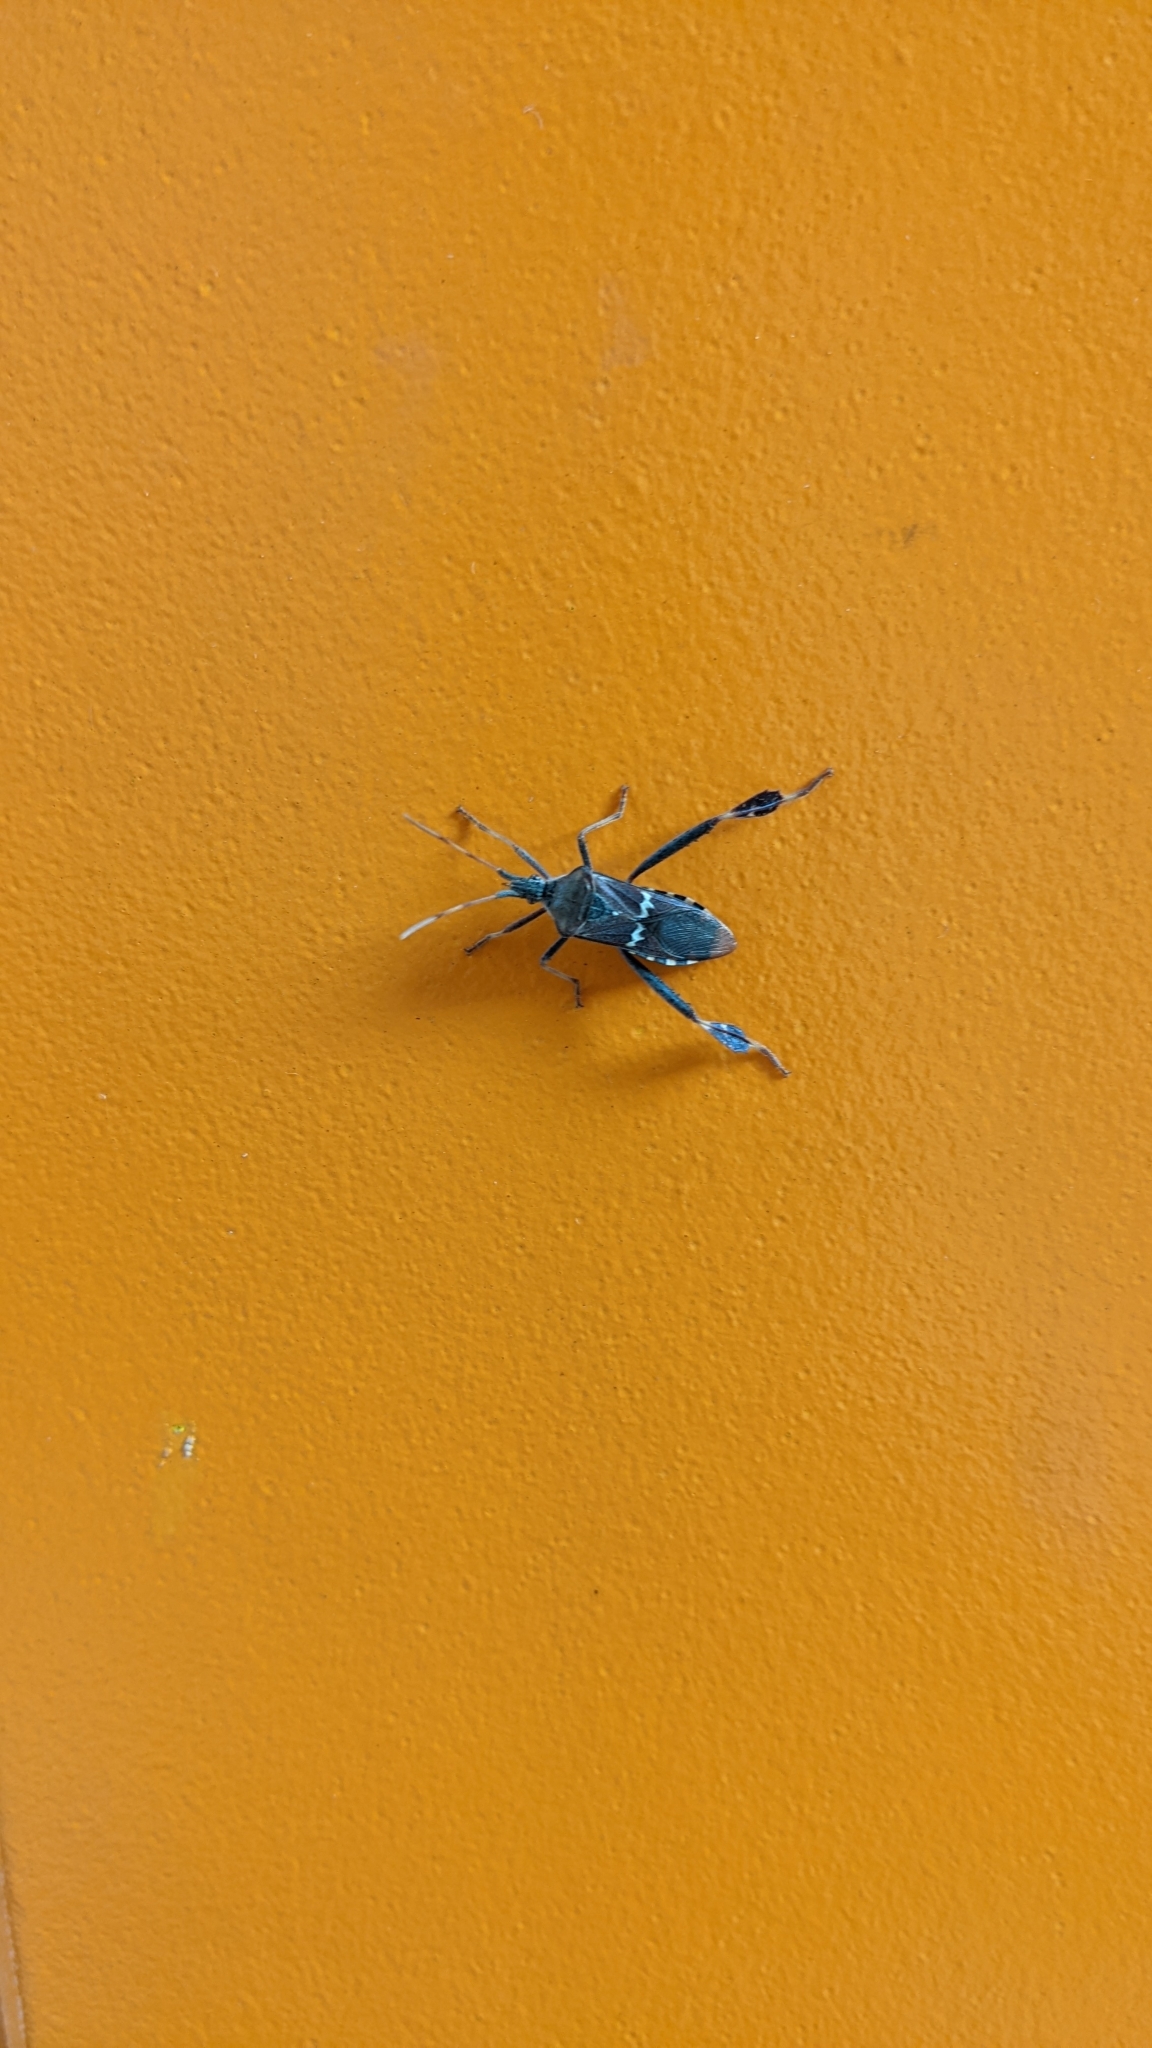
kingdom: Animalia
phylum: Arthropoda
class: Insecta
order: Hemiptera
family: Coreidae
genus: Leptoglossus
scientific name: Leptoglossus clypealis
